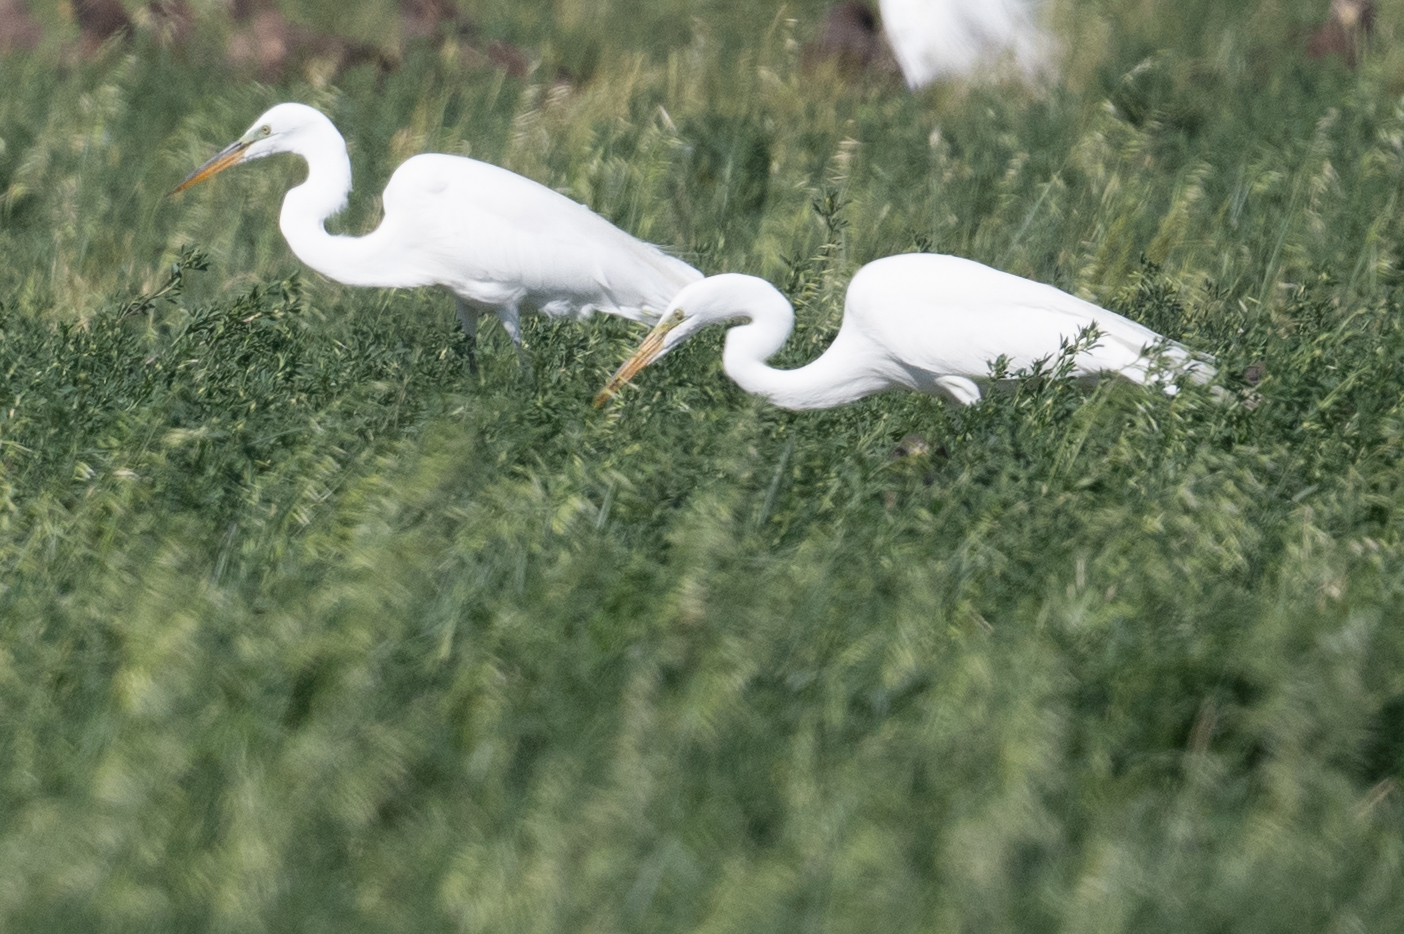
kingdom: Animalia
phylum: Chordata
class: Aves
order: Pelecaniformes
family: Ardeidae
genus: Ardea
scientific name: Ardea alba
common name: Great egret
